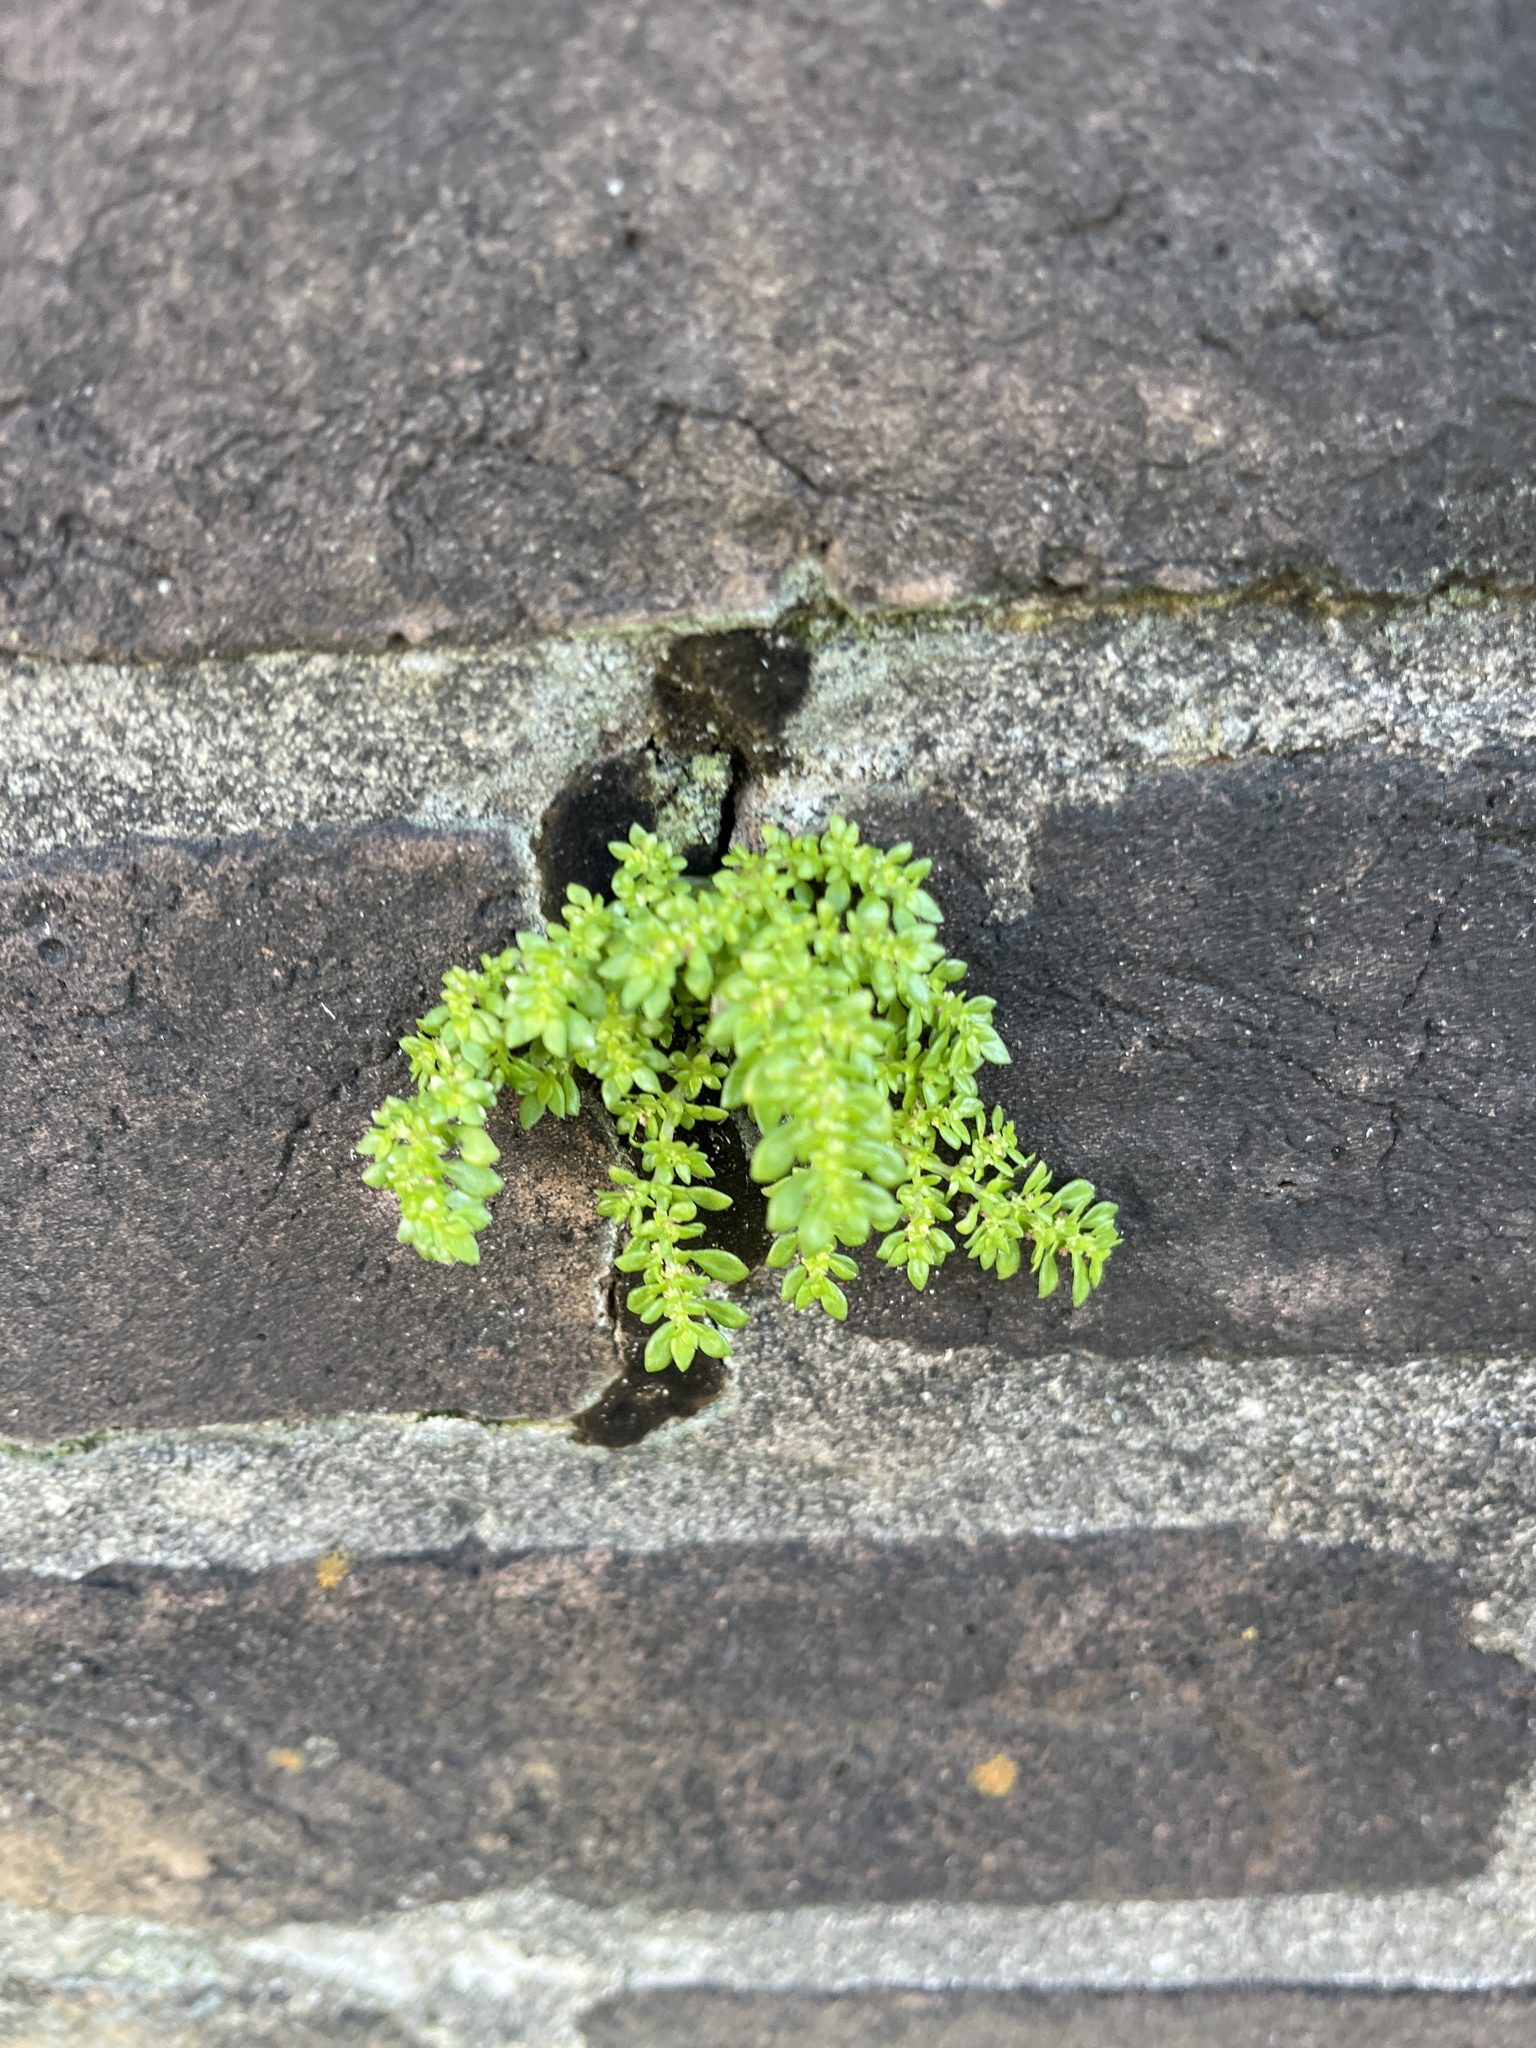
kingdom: Plantae
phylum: Tracheophyta
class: Magnoliopsida
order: Rosales
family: Urticaceae
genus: Pilea
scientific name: Pilea microphylla
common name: Artillery-plant
